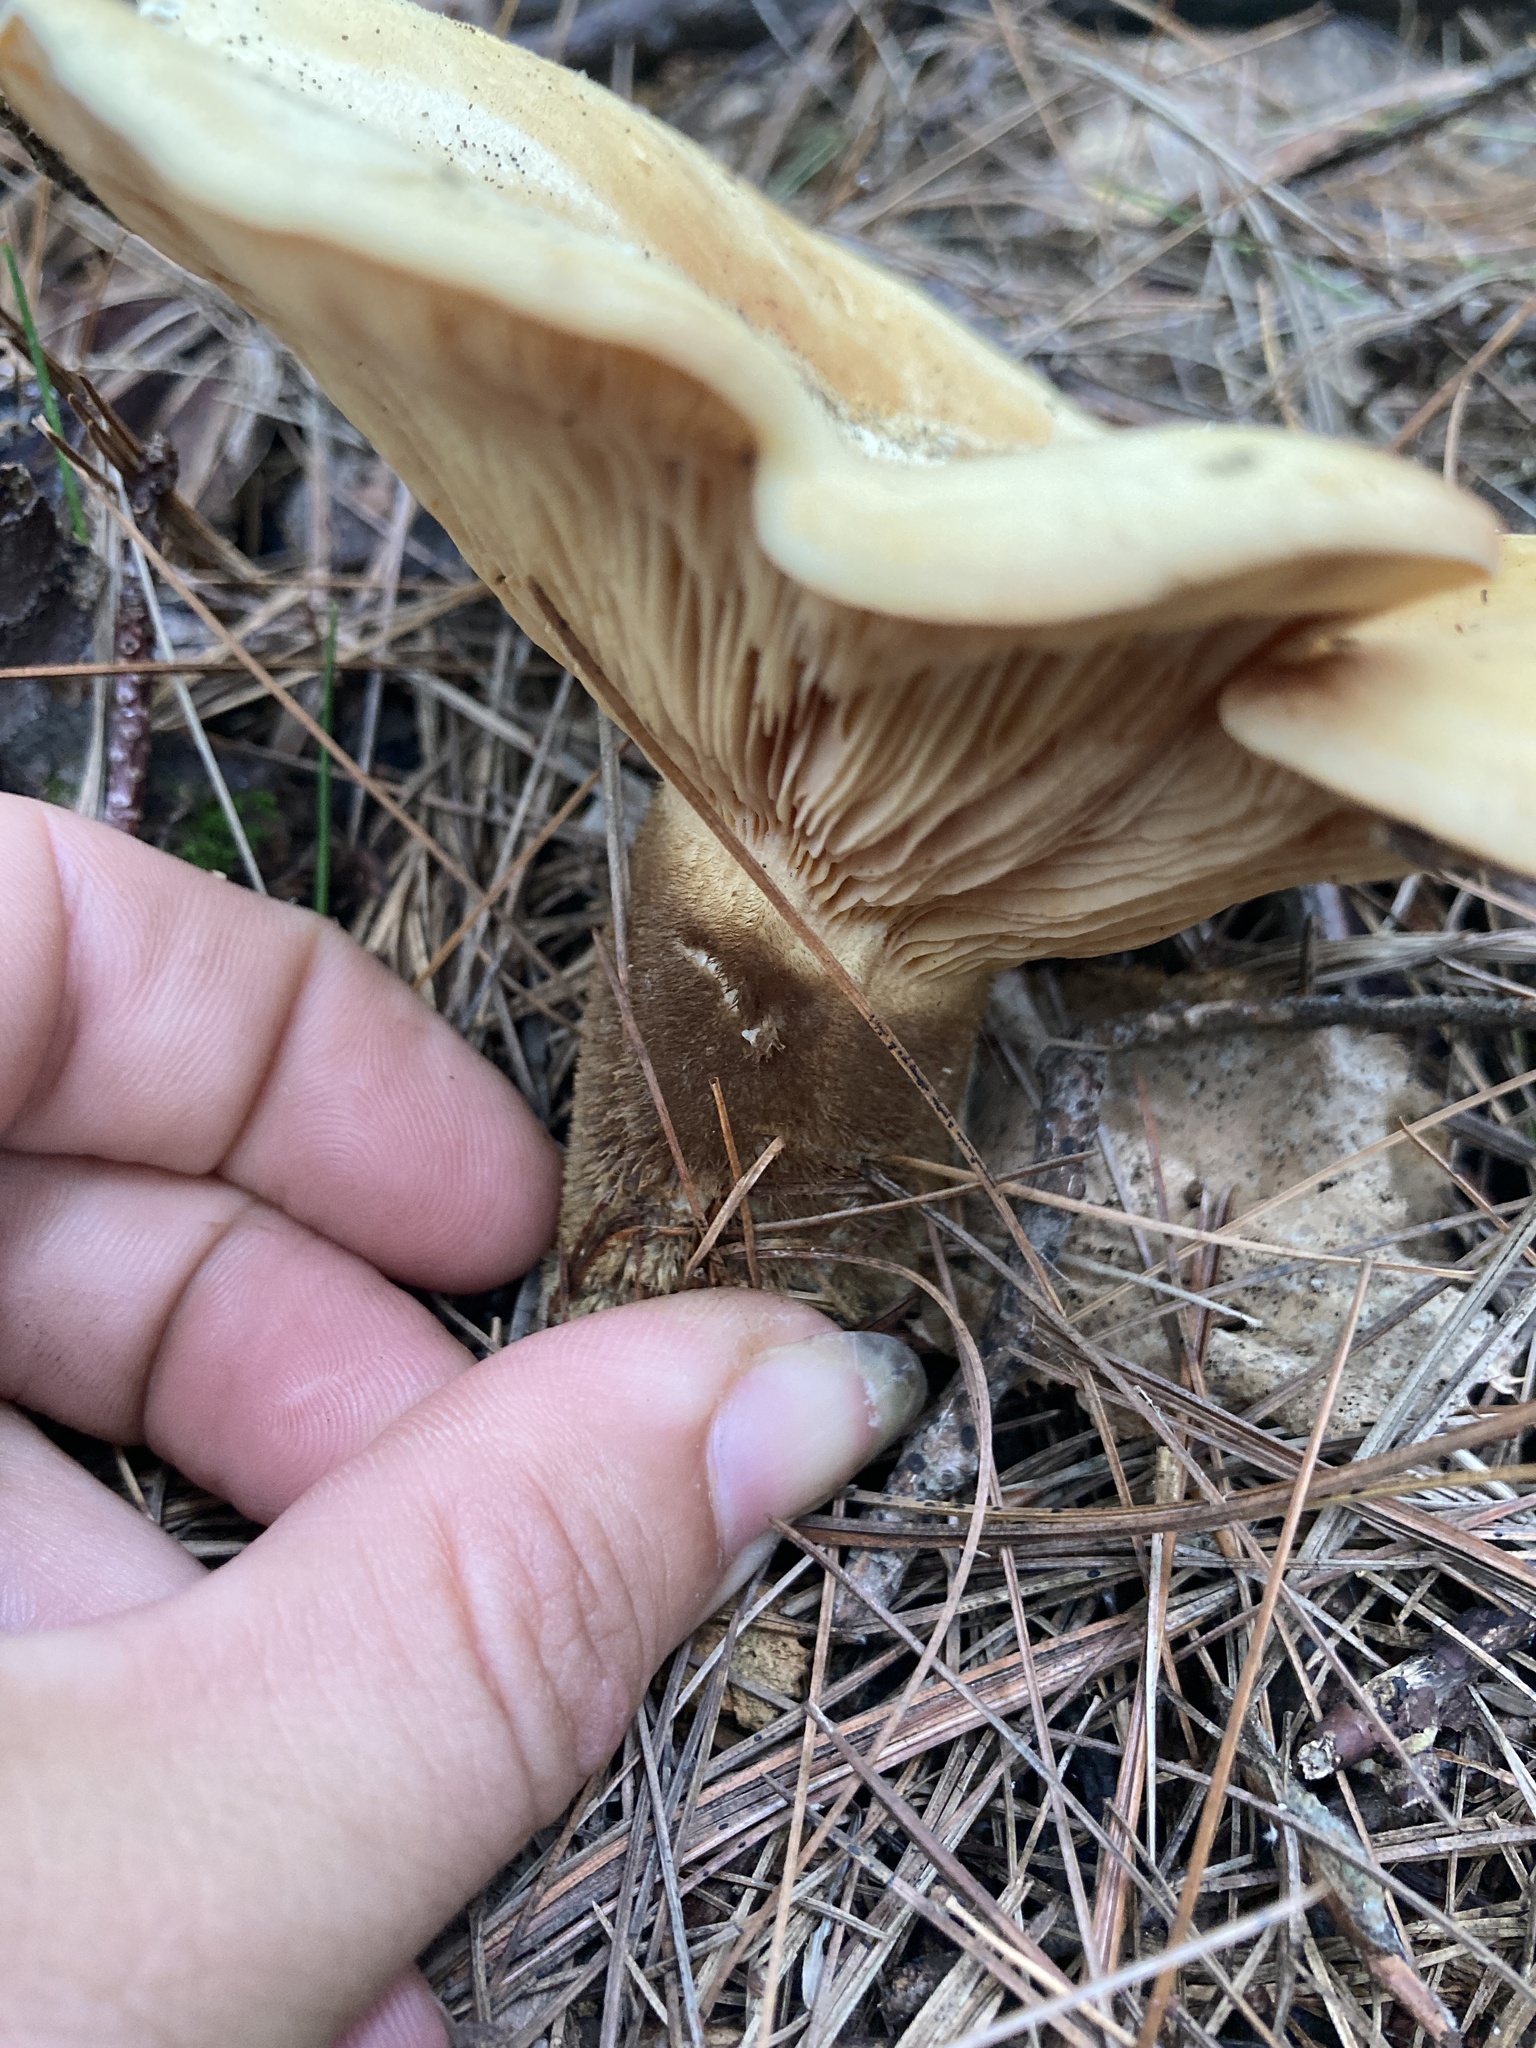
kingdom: Fungi
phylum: Basidiomycota
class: Agaricomycetes
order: Boletales
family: Tapinellaceae
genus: Tapinella
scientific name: Tapinella atrotomentosa
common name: Velvet rollrim
